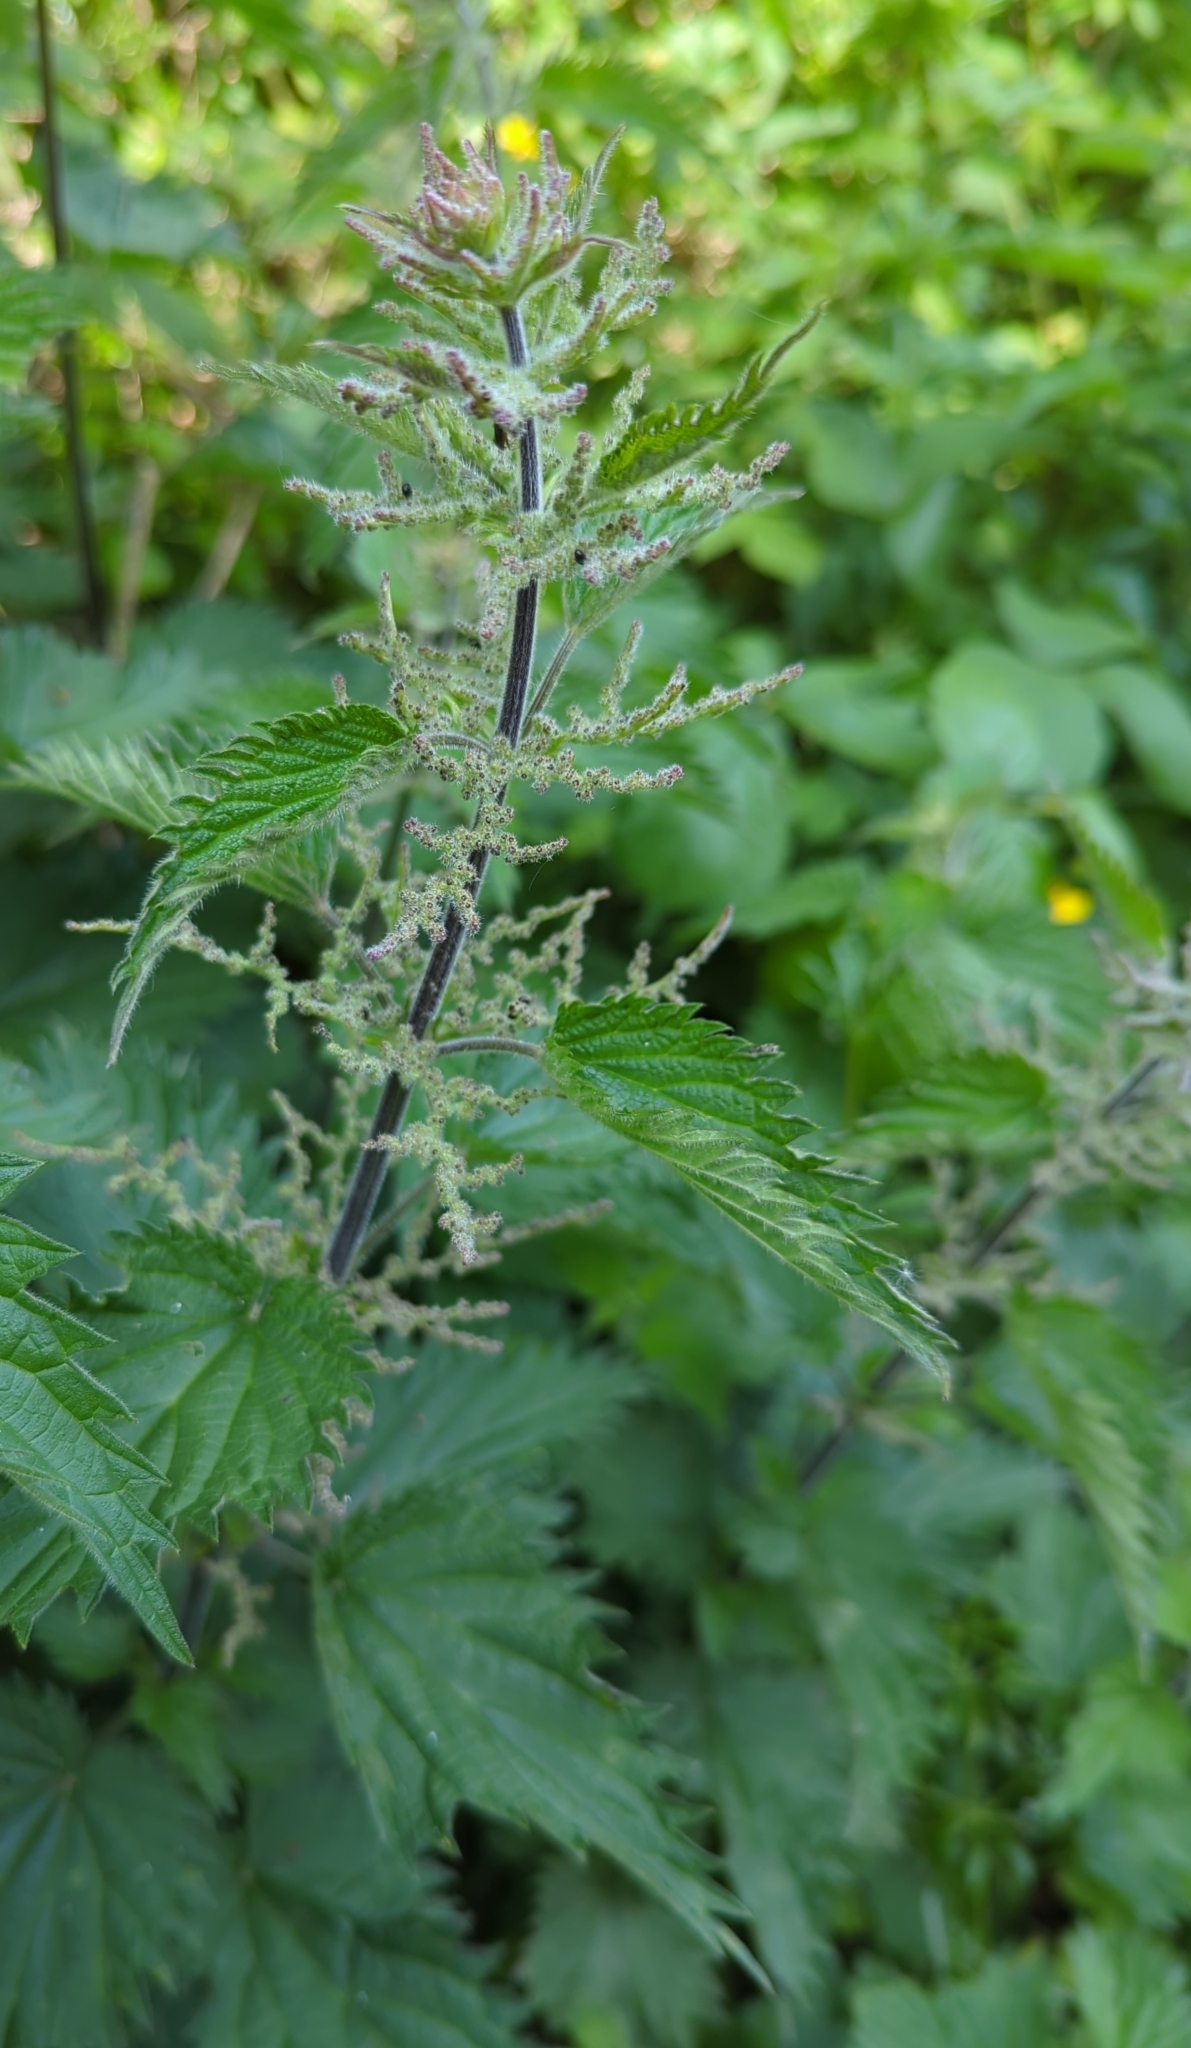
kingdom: Plantae
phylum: Tracheophyta
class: Magnoliopsida
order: Rosales
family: Urticaceae
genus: Urtica
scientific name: Urtica dioica
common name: Common nettle
